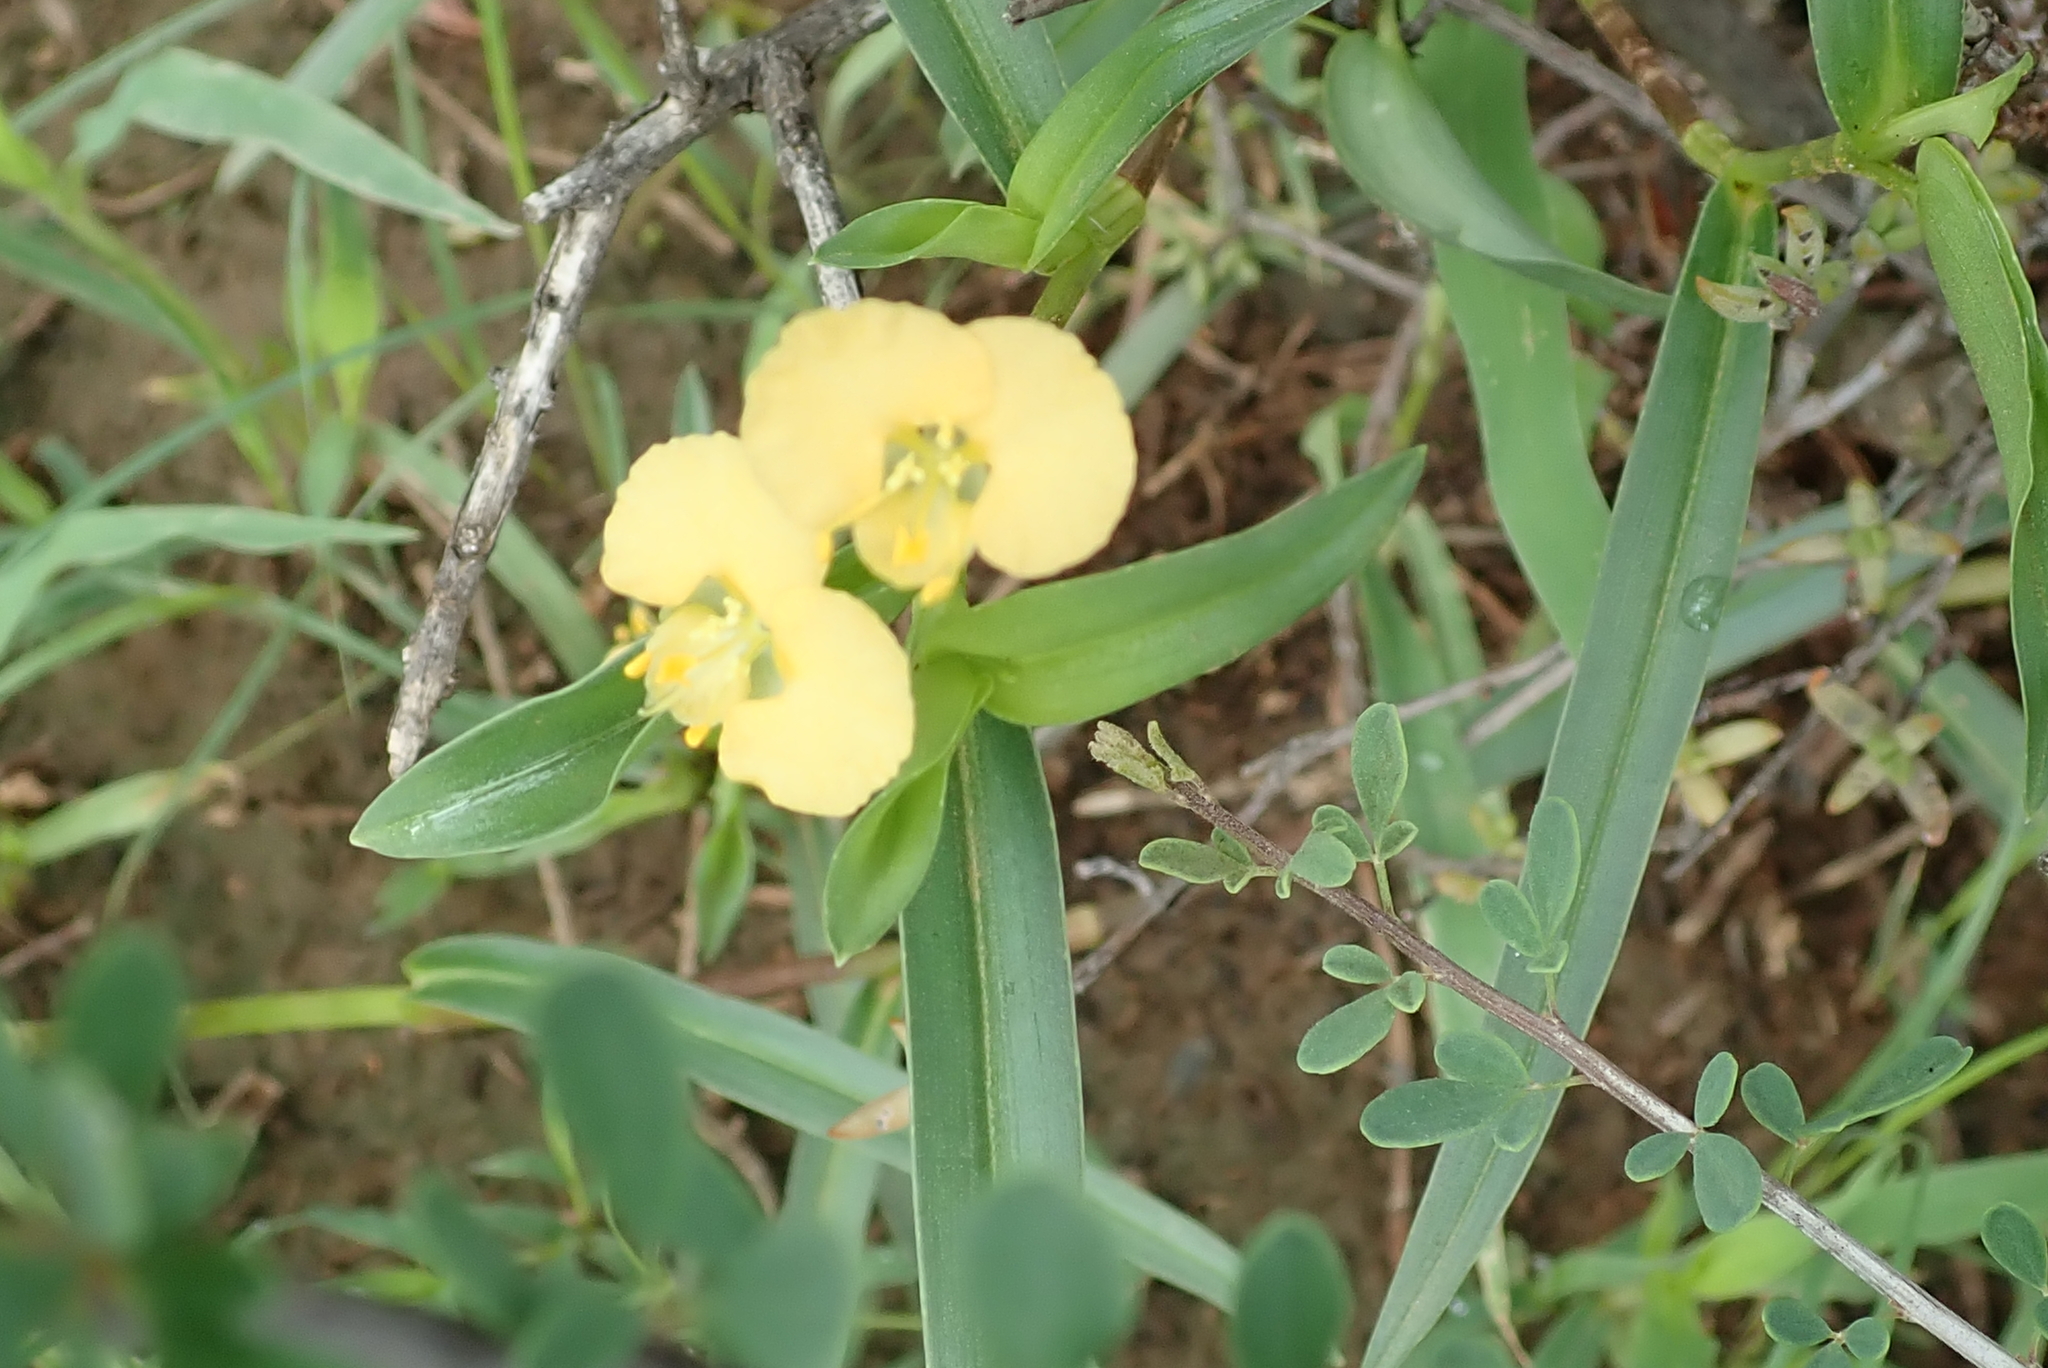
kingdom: Plantae
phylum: Tracheophyta
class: Liliopsida
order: Commelinales
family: Commelinaceae
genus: Commelina
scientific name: Commelina africana
